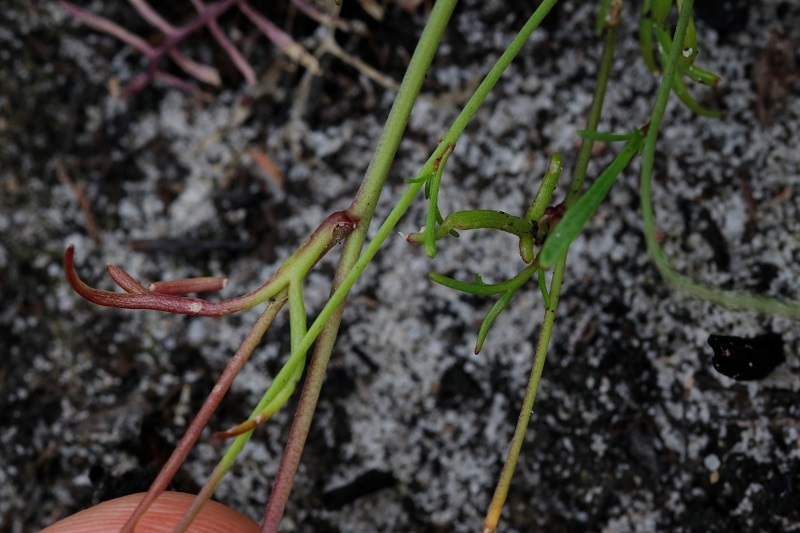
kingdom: Plantae
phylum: Tracheophyta
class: Magnoliopsida
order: Brassicales
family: Brassicaceae
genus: Heliophila
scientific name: Heliophila meyeri
